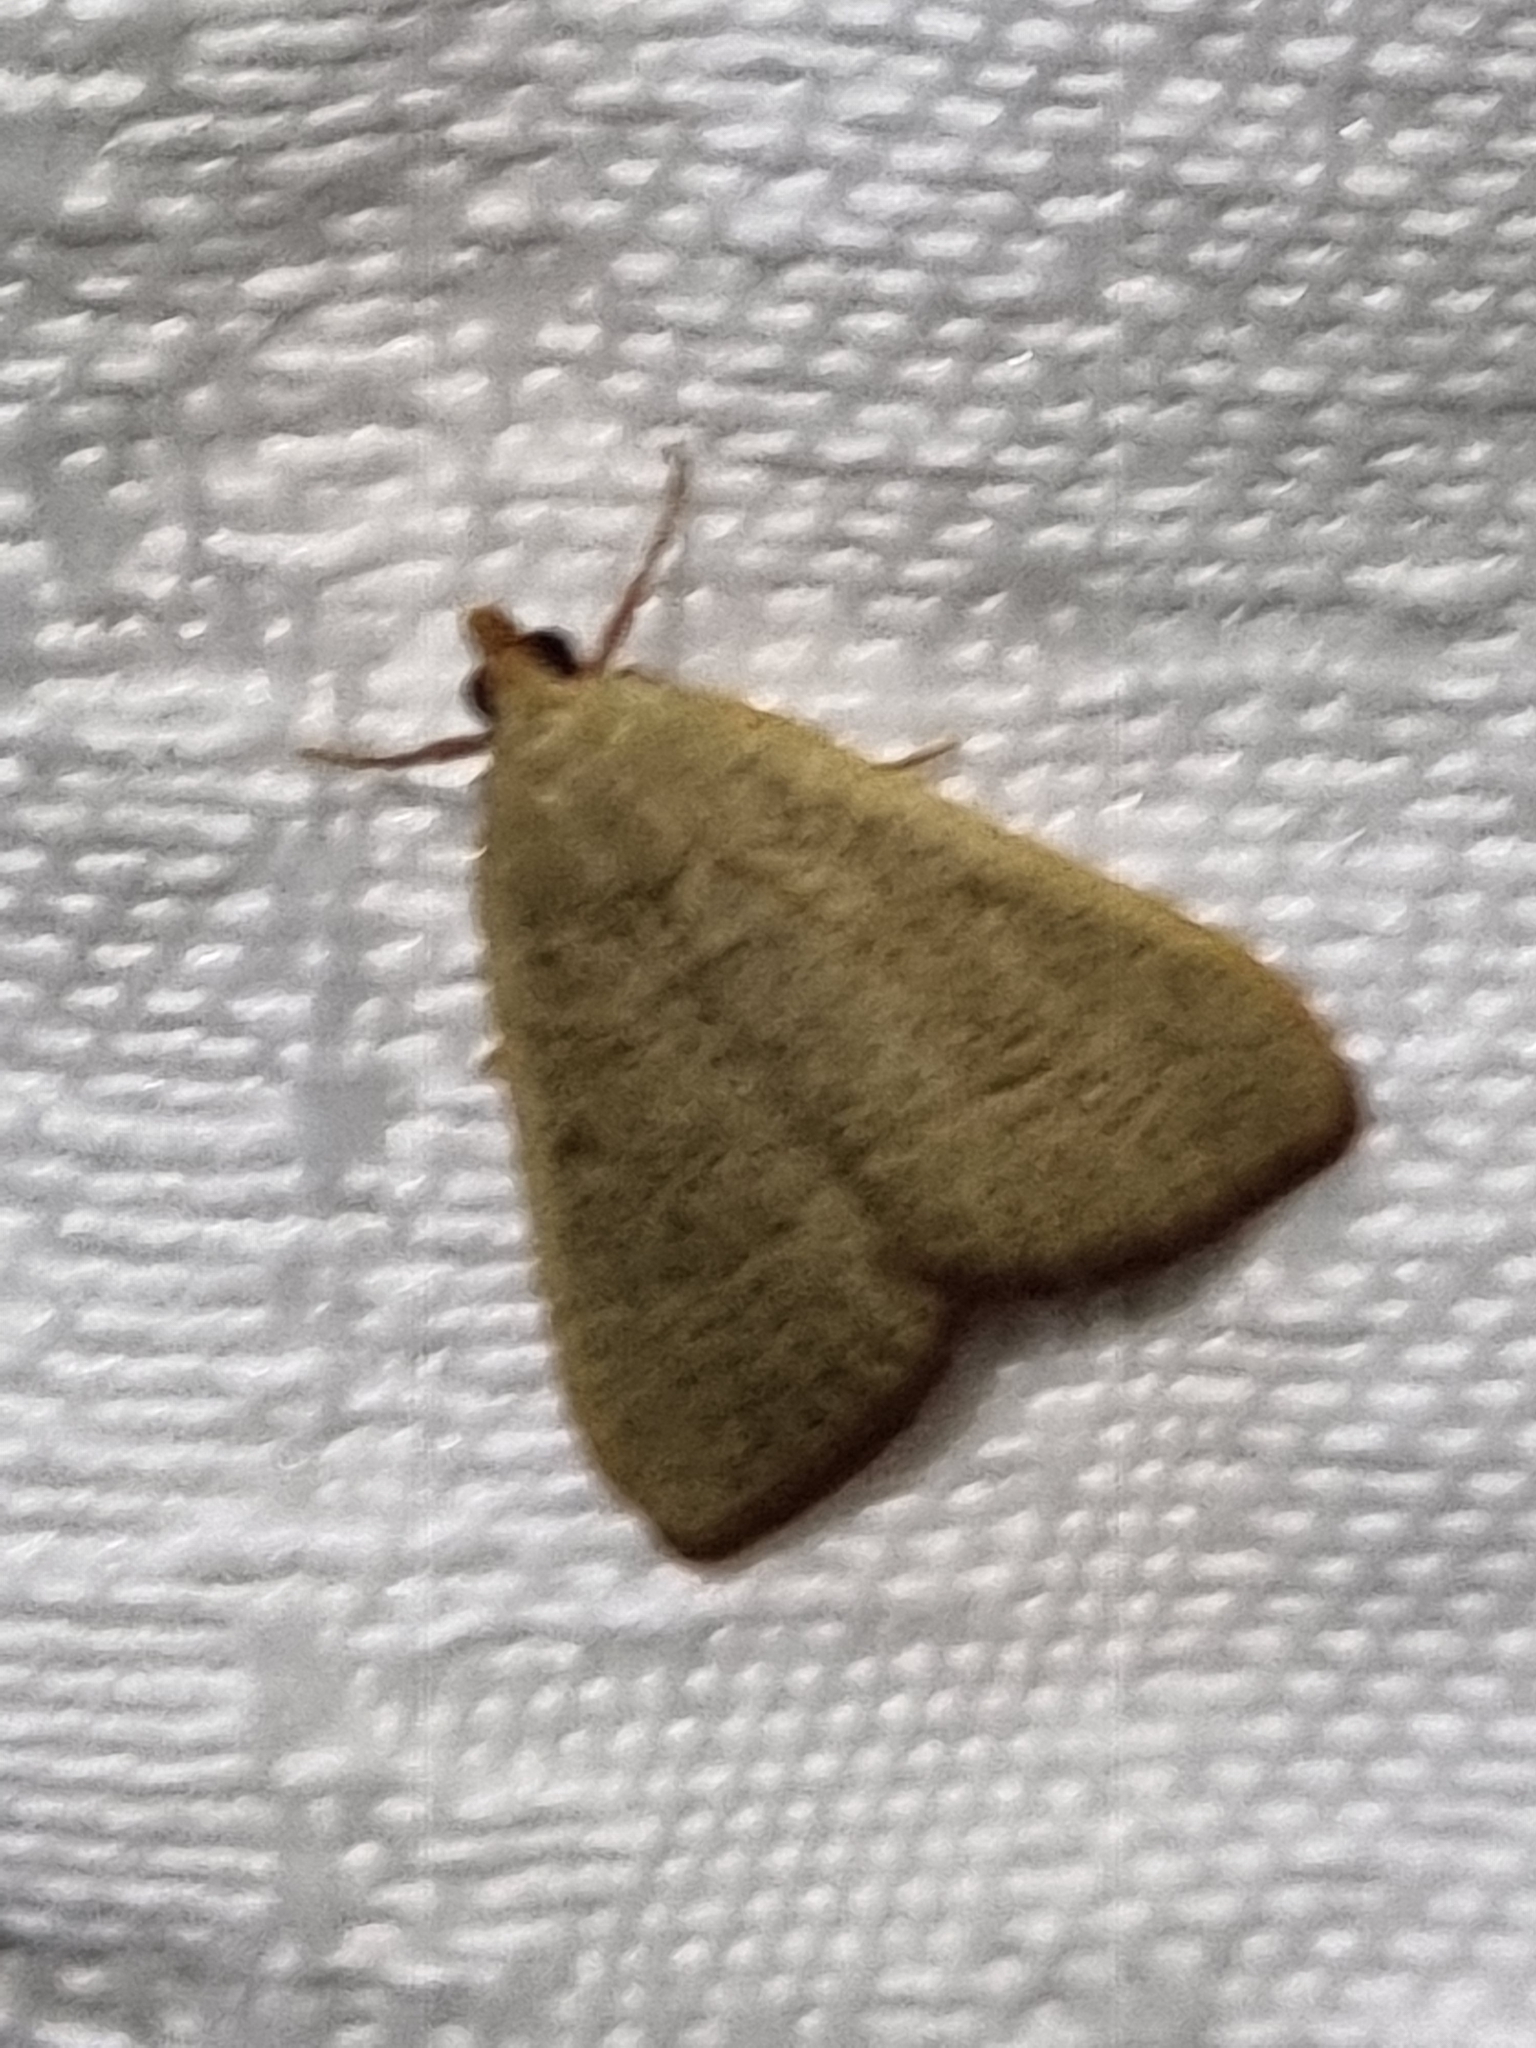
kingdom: Animalia
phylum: Arthropoda
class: Insecta
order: Lepidoptera
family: Pyralidae
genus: Hypsopygia
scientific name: Hypsopygia
